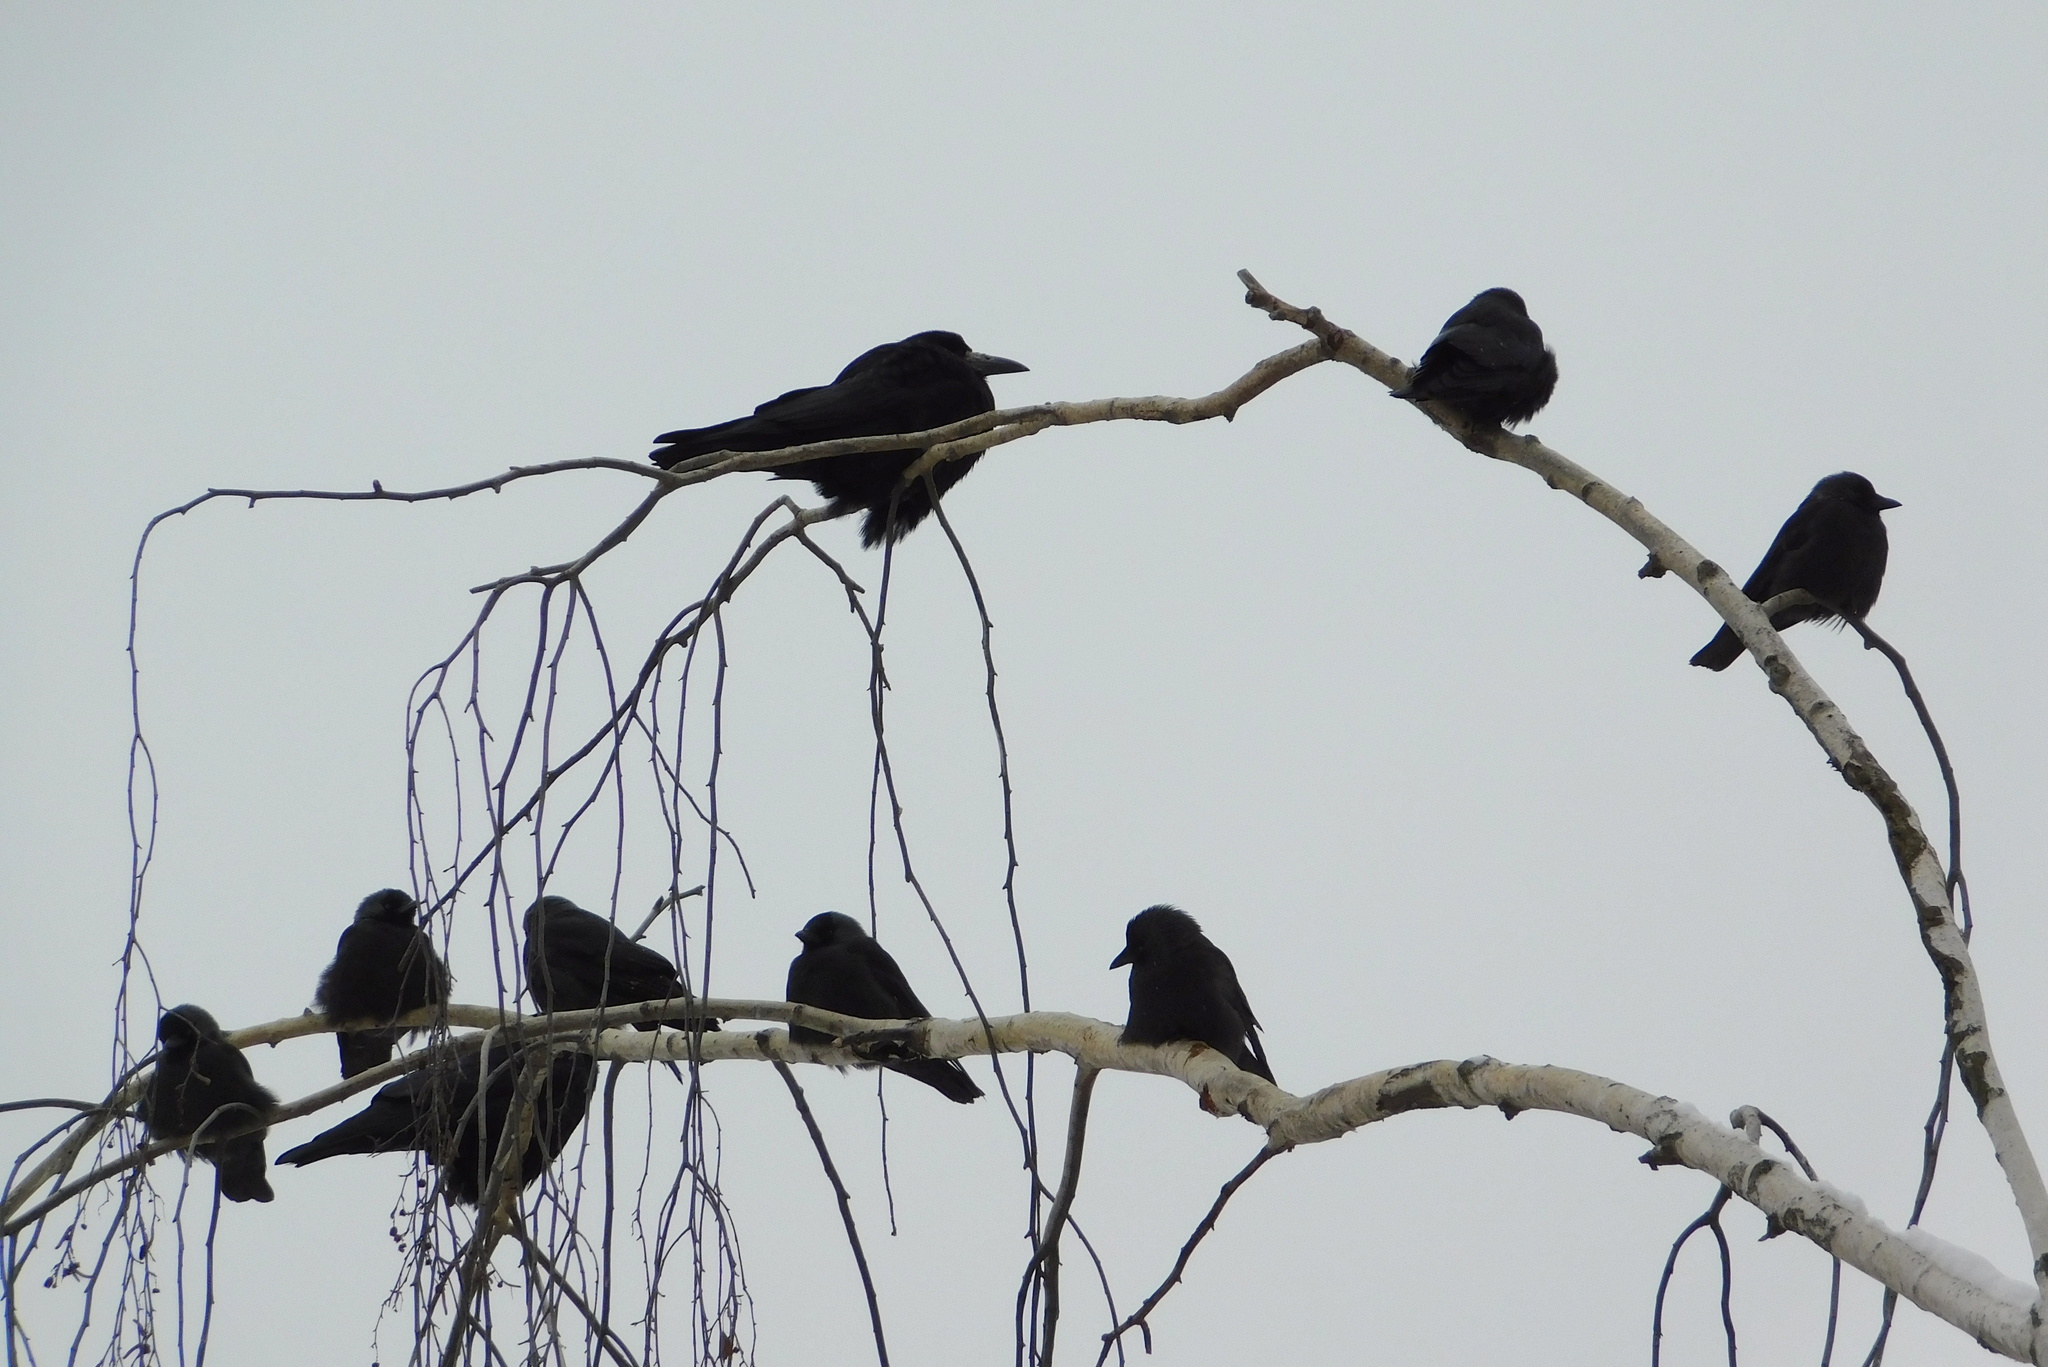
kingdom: Animalia
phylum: Chordata
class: Aves
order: Passeriformes
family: Corvidae
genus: Coloeus
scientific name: Coloeus monedula
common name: Western jackdaw
